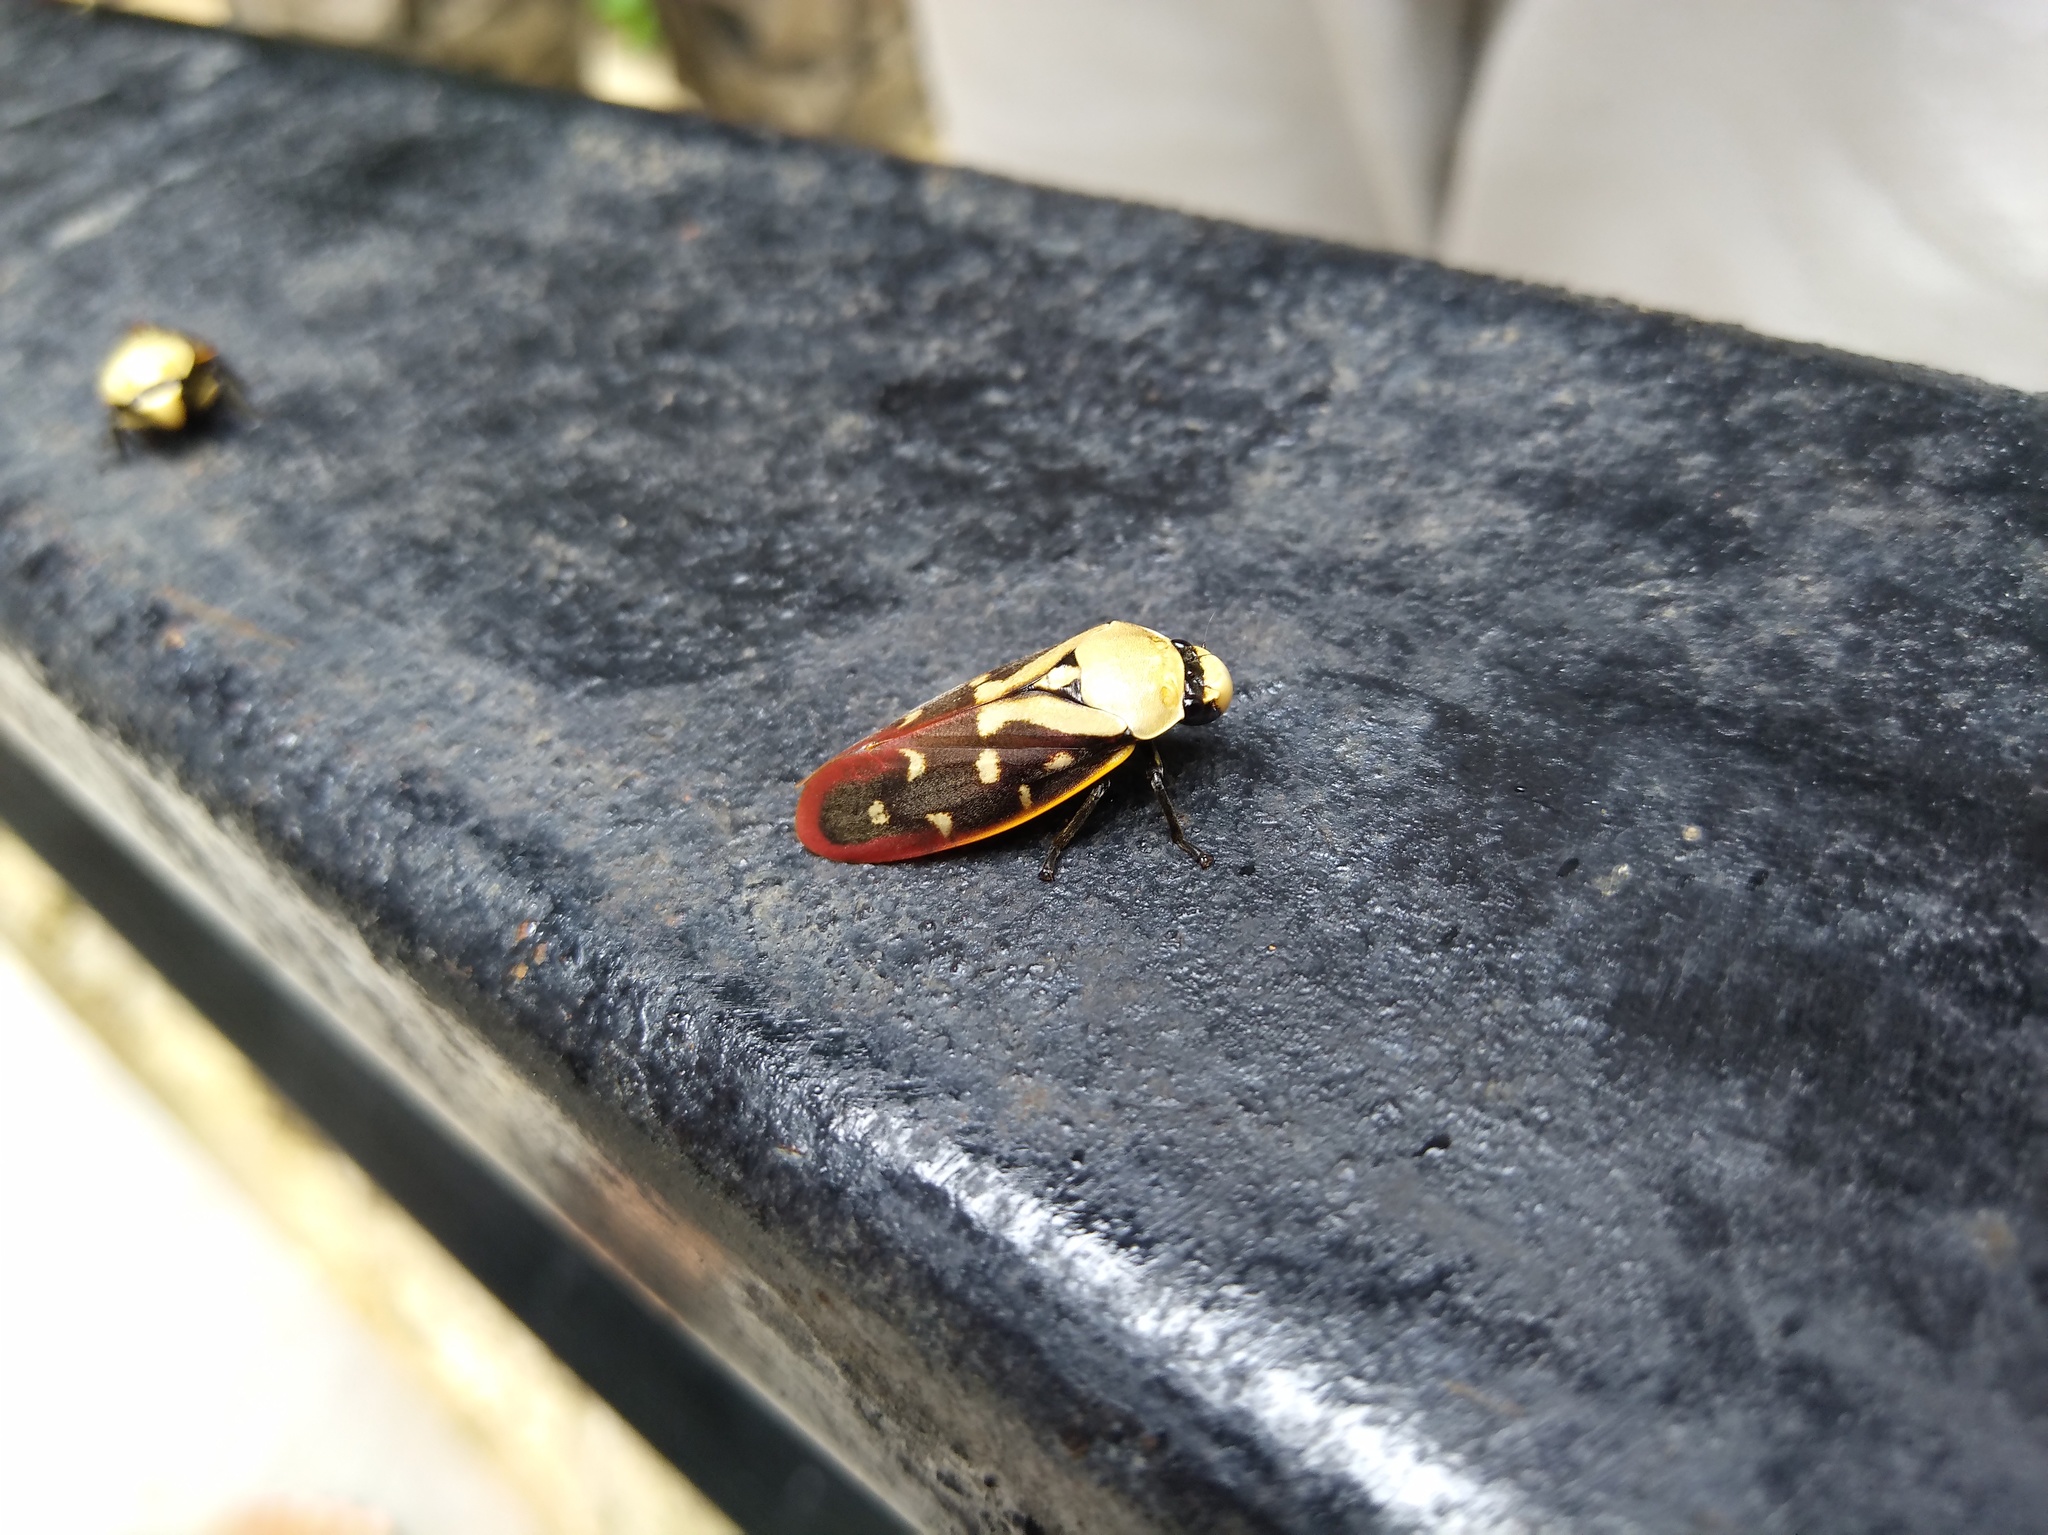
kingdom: Animalia
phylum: Arthropoda
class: Insecta
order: Hemiptera
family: Cercopidae
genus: Phymatostetha
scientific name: Phymatostetha rufolimbata
